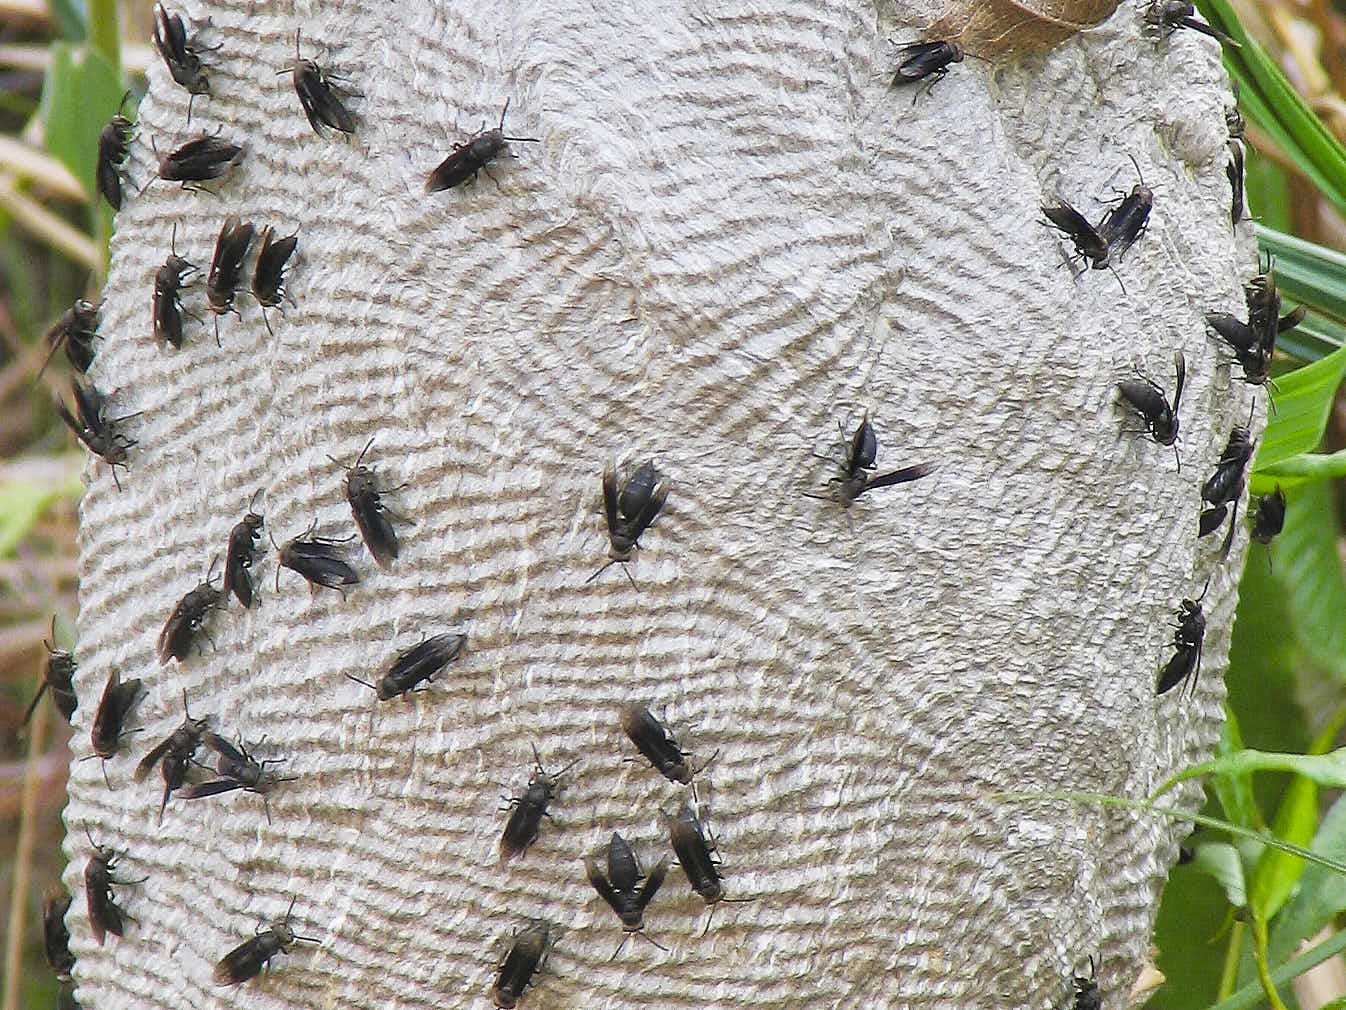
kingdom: Animalia
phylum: Arthropoda
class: Insecta
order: Hymenoptera
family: Vespidae
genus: Parachartergus
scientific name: Parachartergus fraternus
